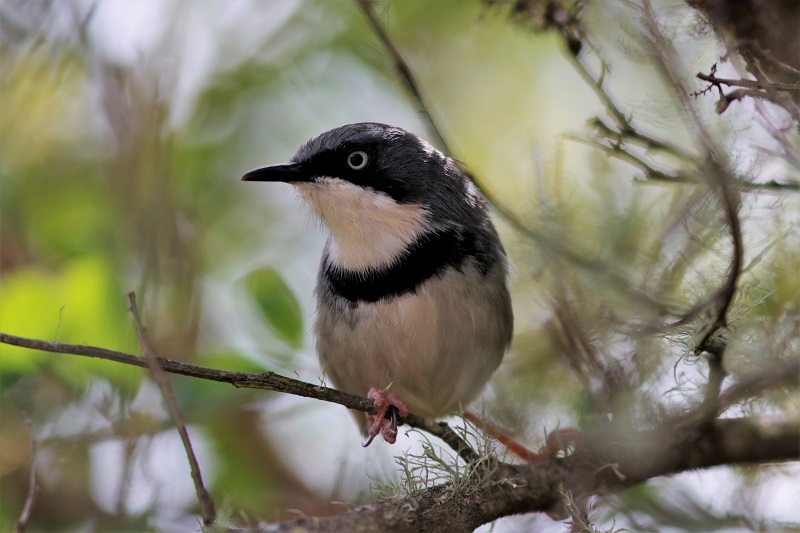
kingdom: Animalia
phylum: Chordata
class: Aves
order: Passeriformes
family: Cisticolidae
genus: Apalis
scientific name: Apalis thoracica
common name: Bar-throated apalis
